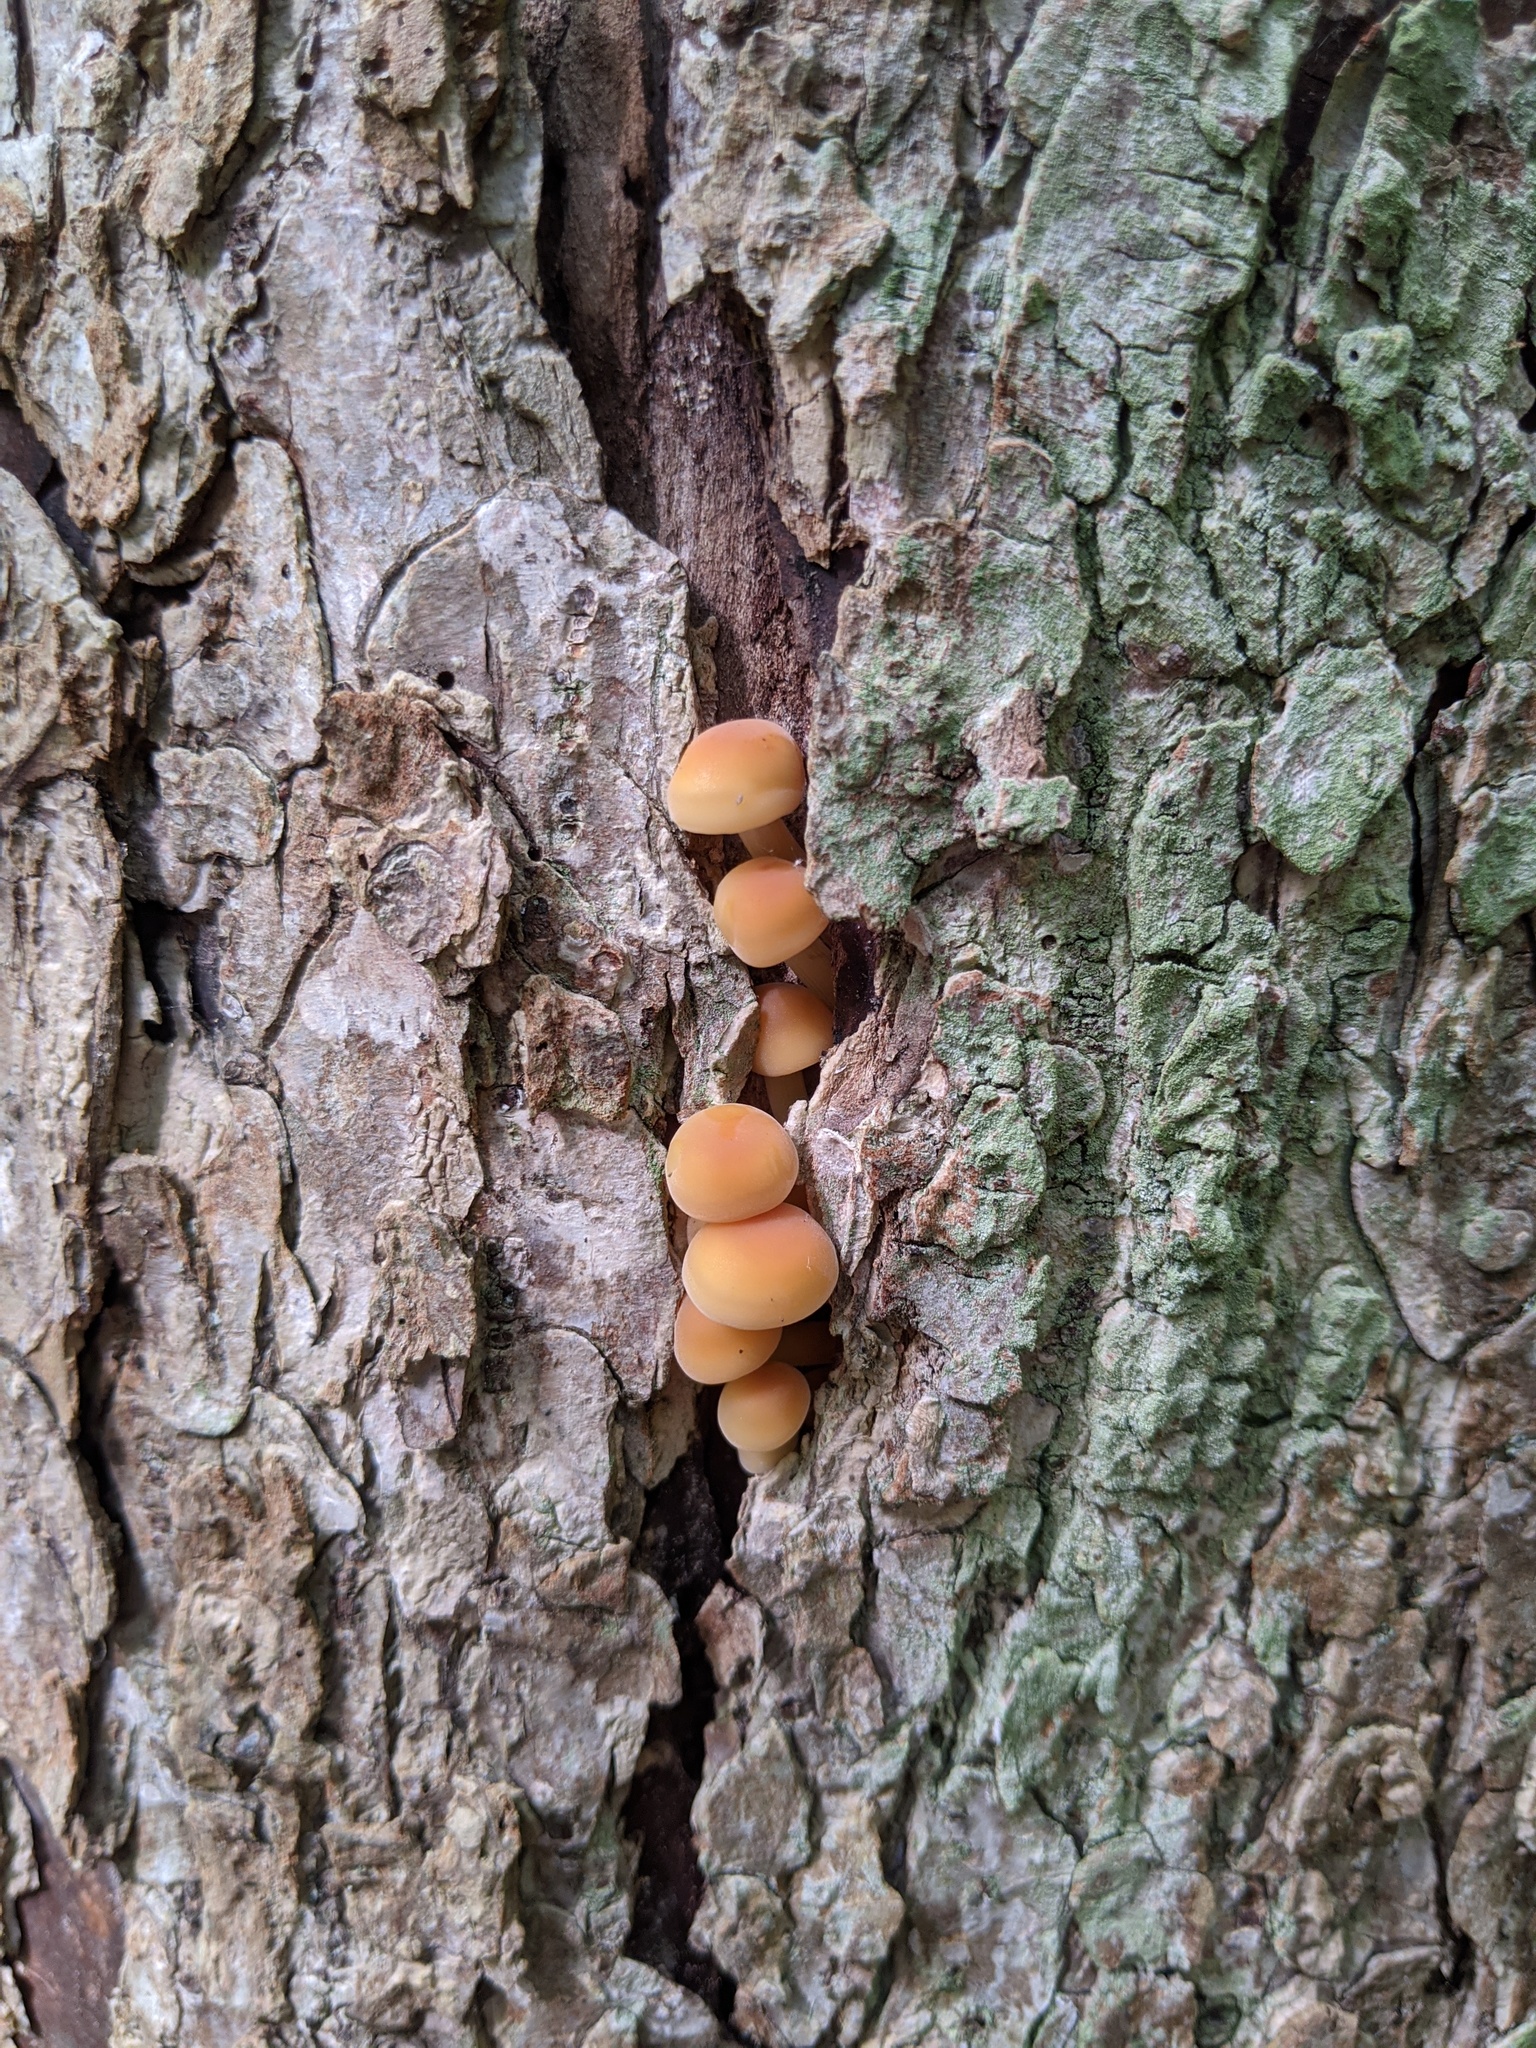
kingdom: Fungi
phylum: Basidiomycota
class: Agaricomycetes
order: Agaricales
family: Physalacriaceae
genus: Flammulina
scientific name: Flammulina velutipes
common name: Velvet shank
